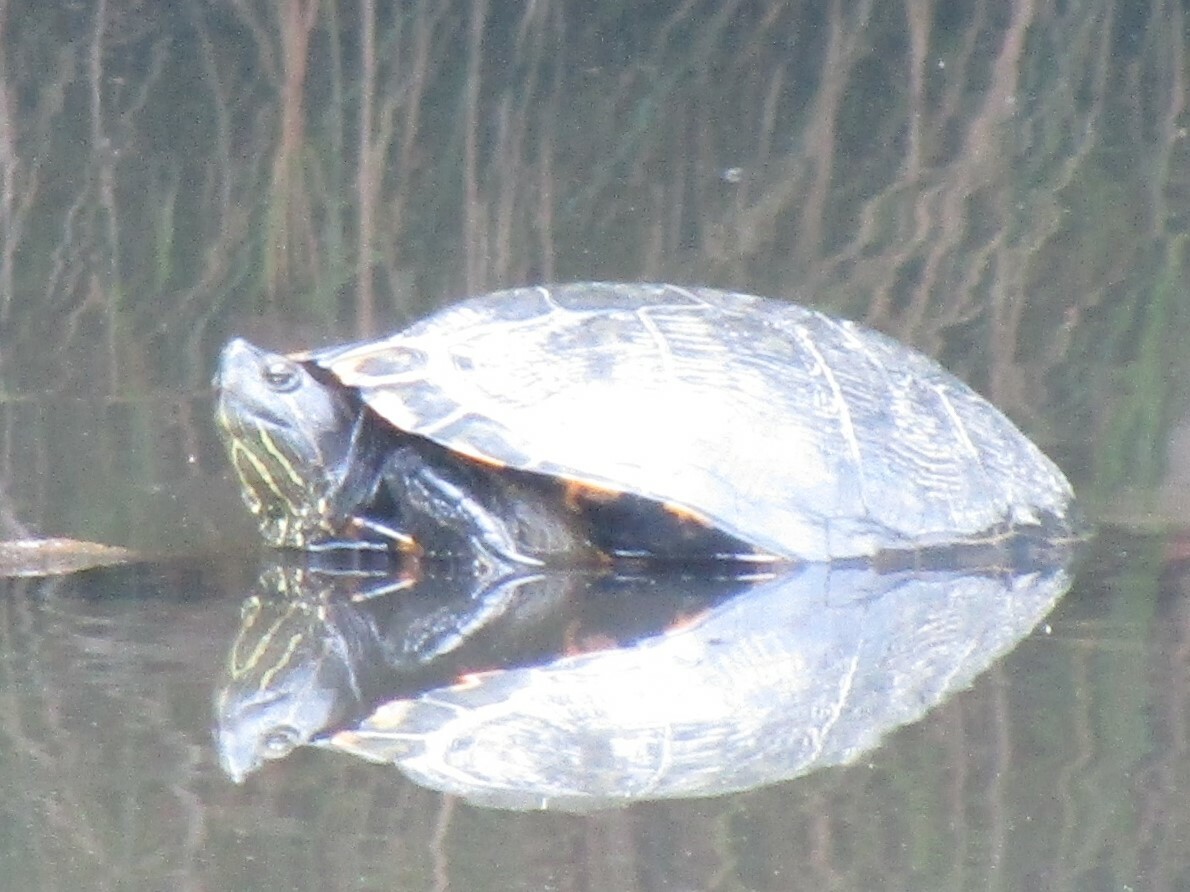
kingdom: Animalia
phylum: Chordata
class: Testudines
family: Emydidae
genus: Trachemys
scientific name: Trachemys scripta
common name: Slider
